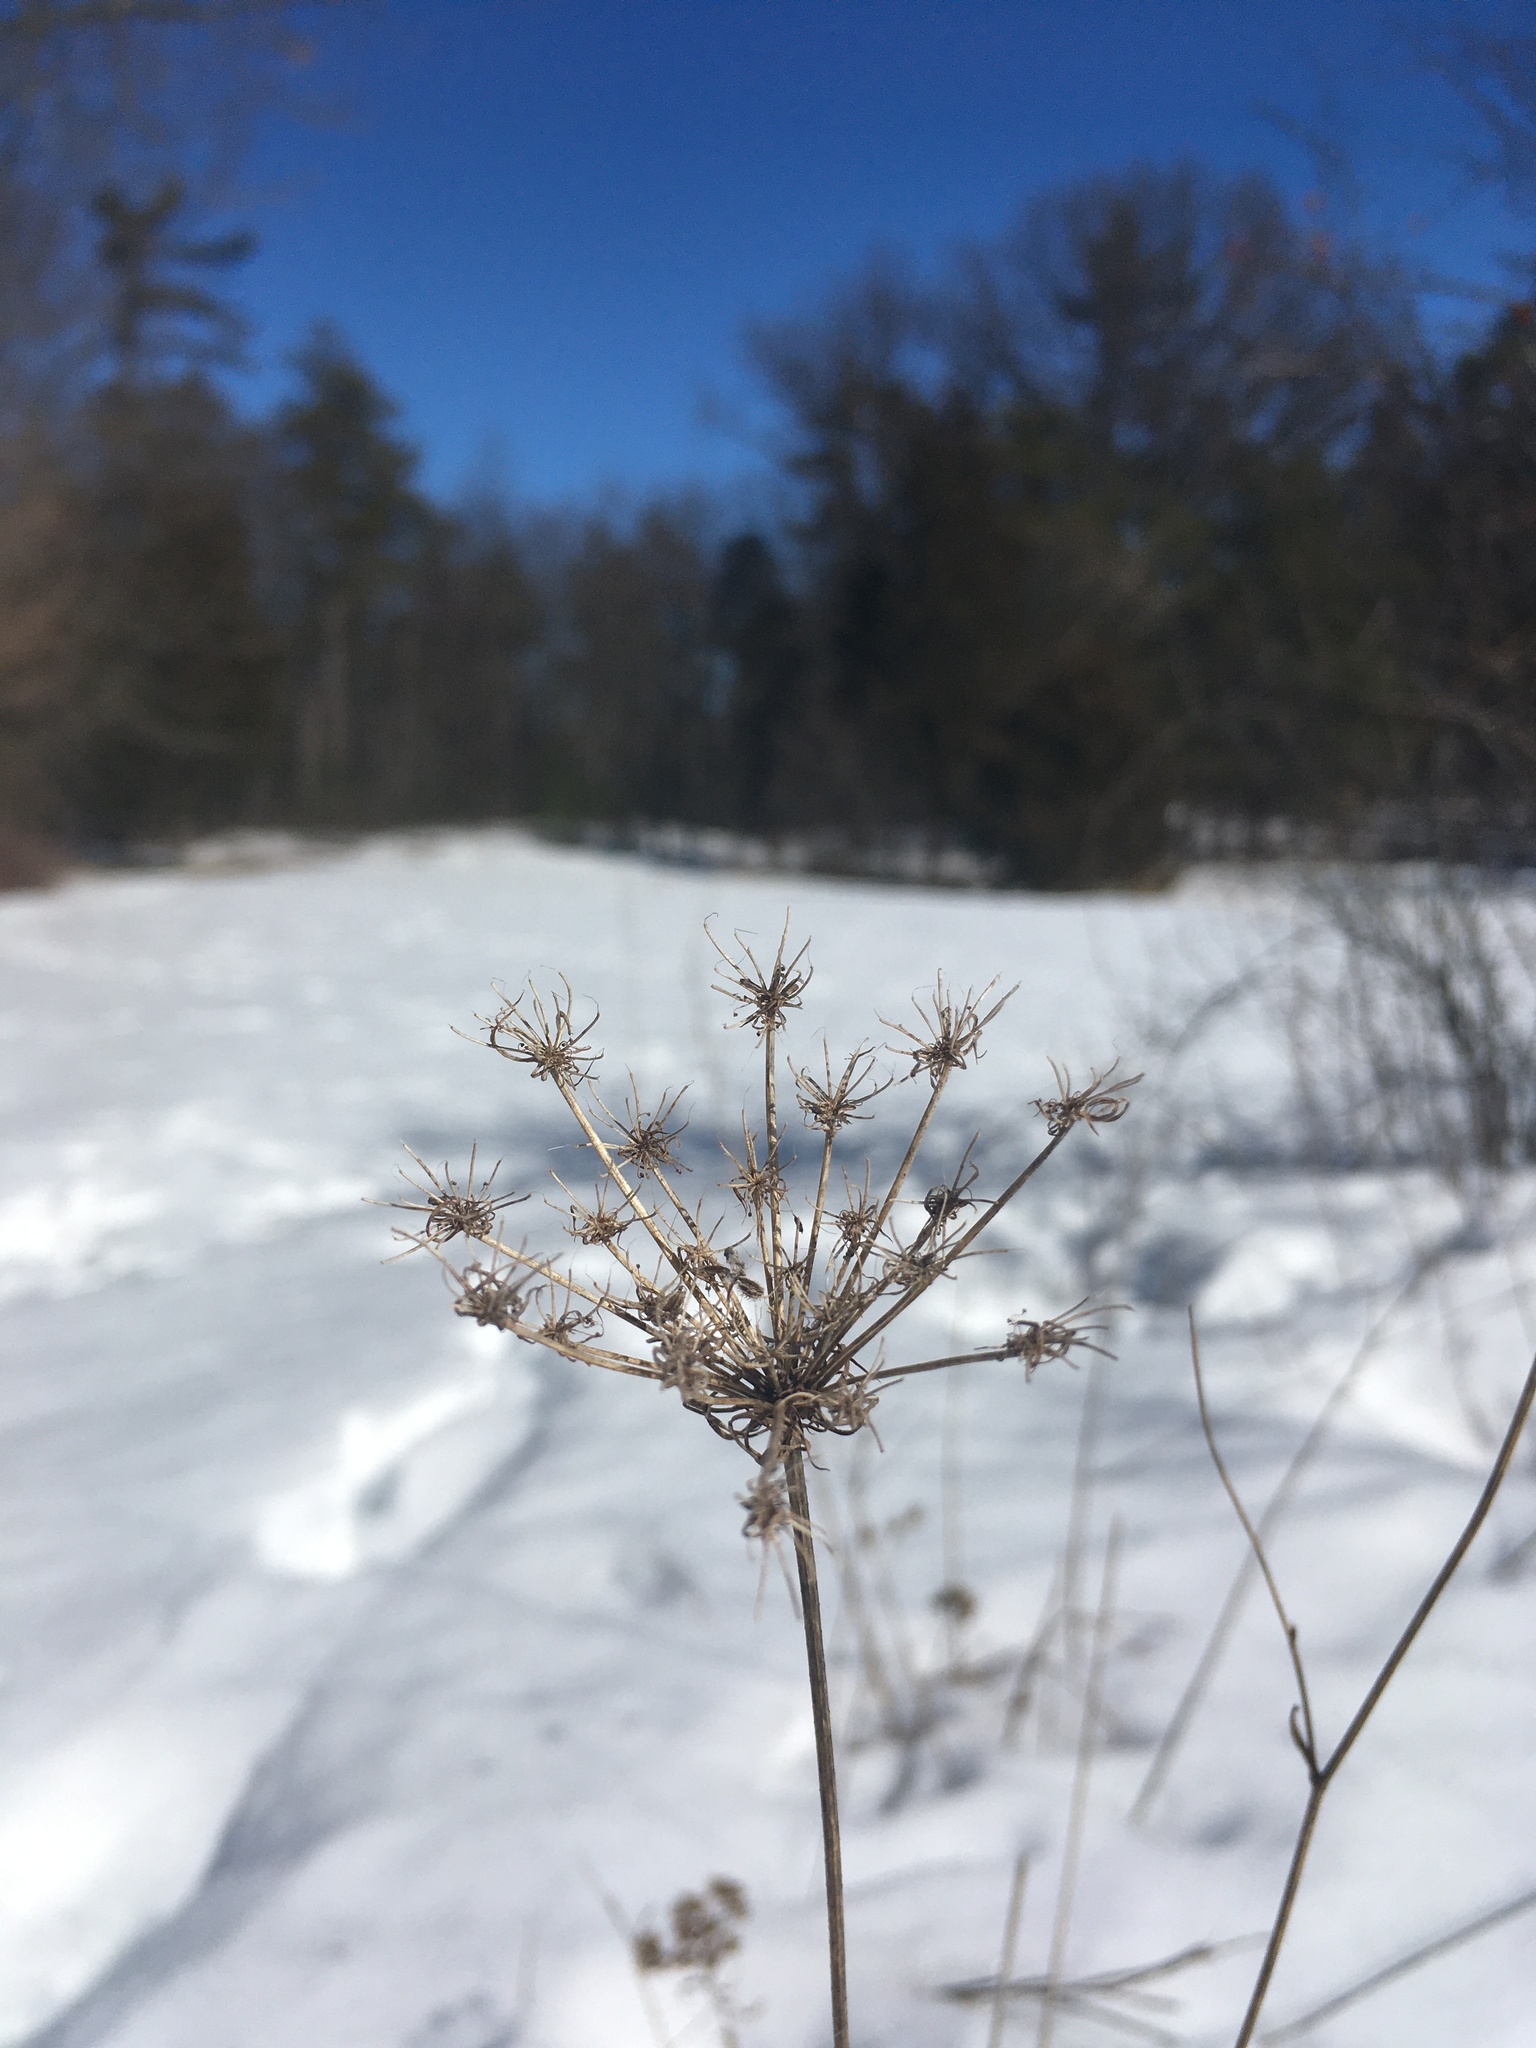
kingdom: Plantae
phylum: Tracheophyta
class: Magnoliopsida
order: Apiales
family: Apiaceae
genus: Daucus
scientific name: Daucus carota
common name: Wild carrot
